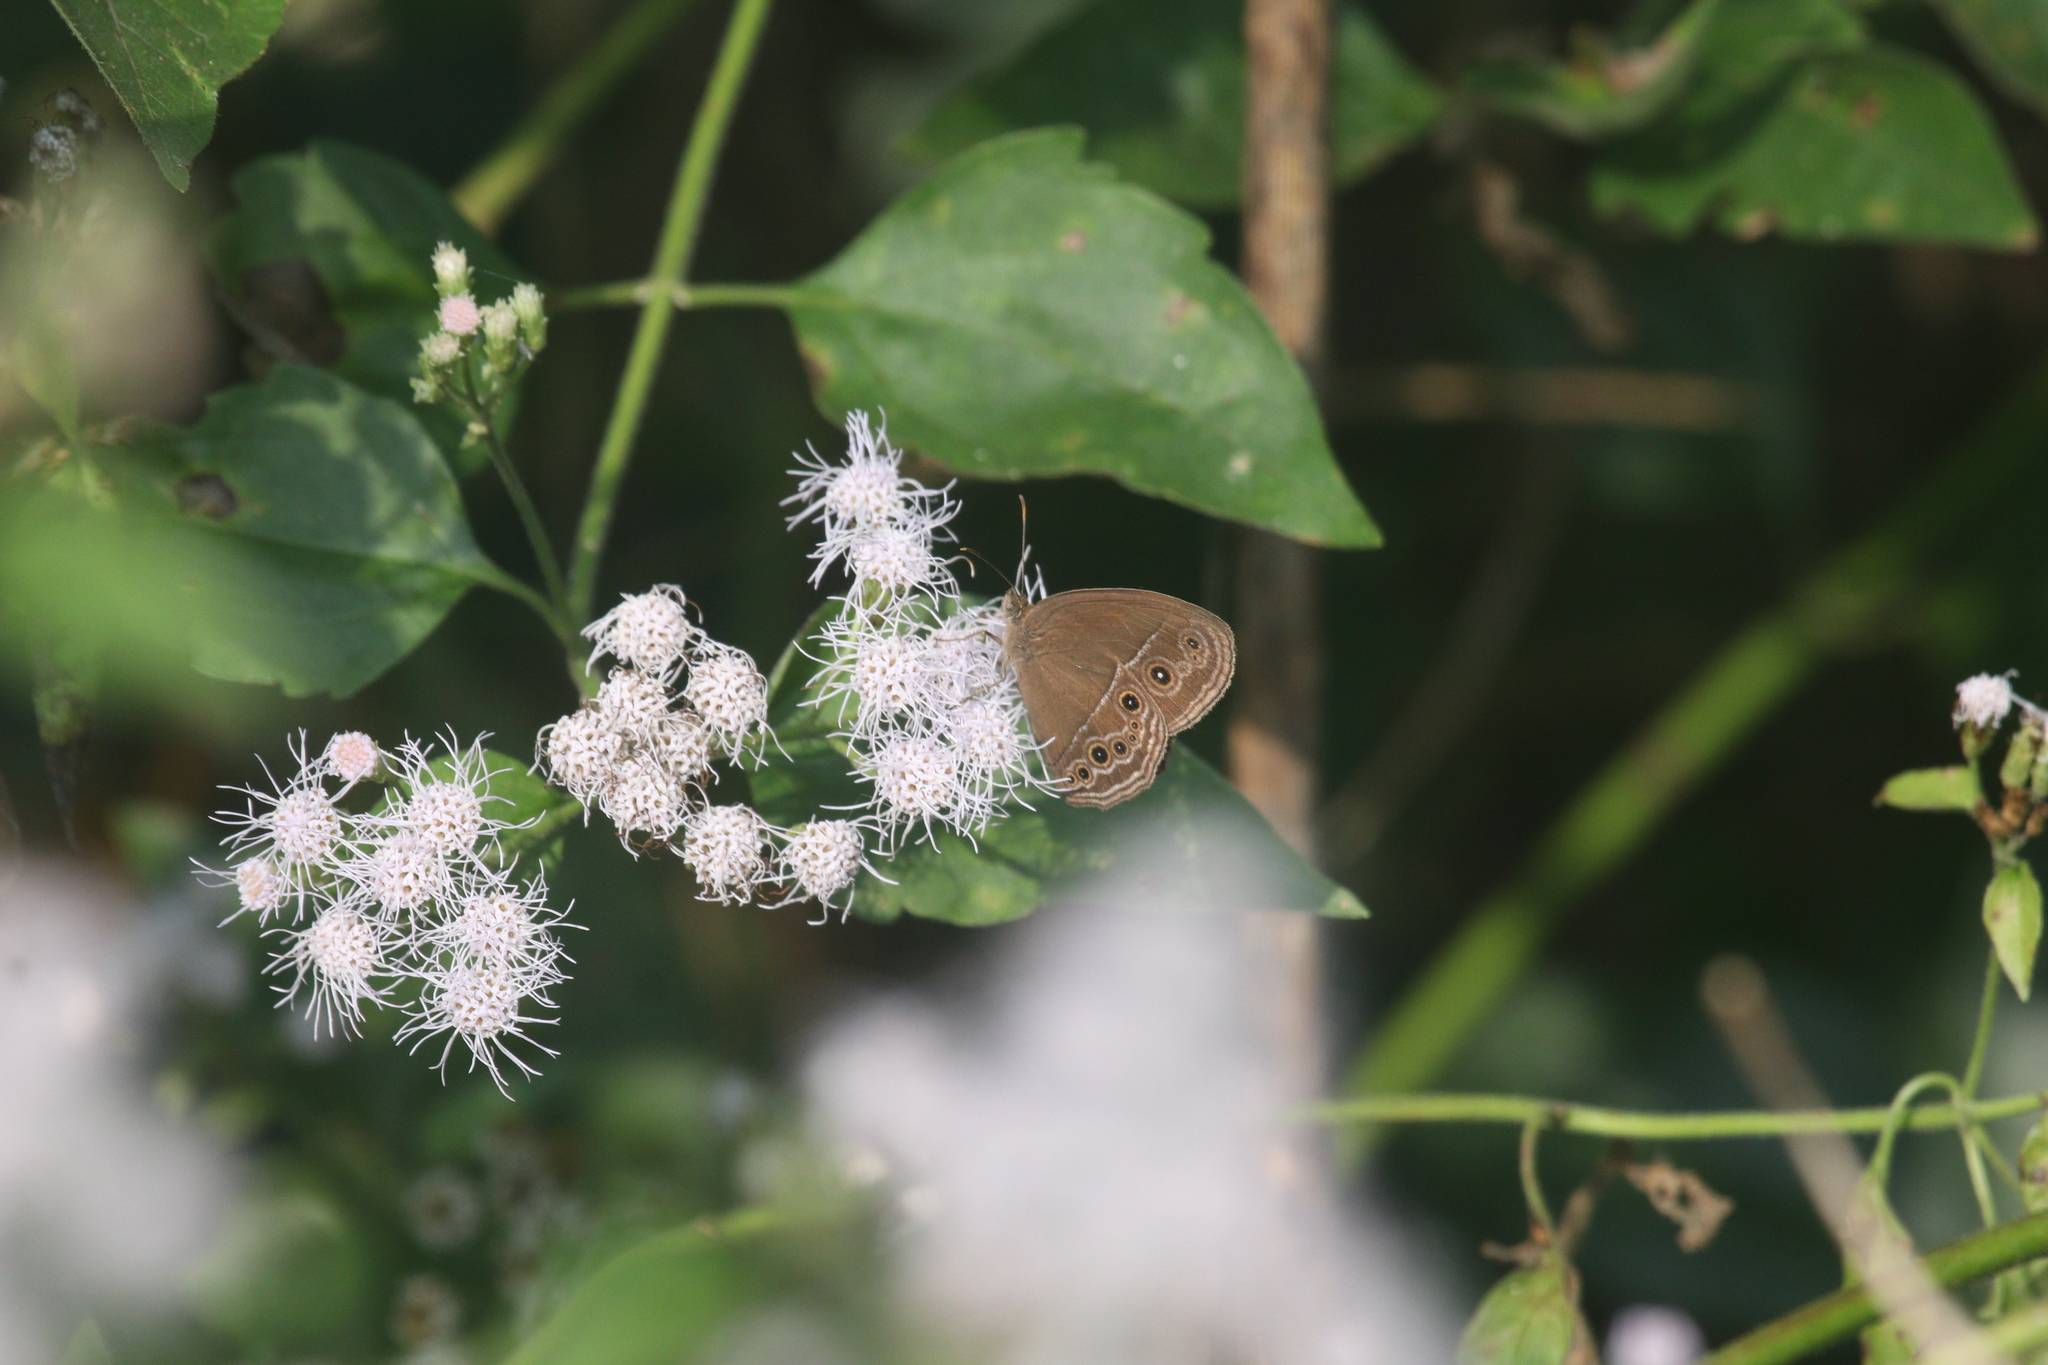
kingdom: Animalia
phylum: Arthropoda
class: Insecta
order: Lepidoptera
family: Nymphalidae
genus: Mycalesis
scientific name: Mycalesis perseus
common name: Dingy bushbrown
